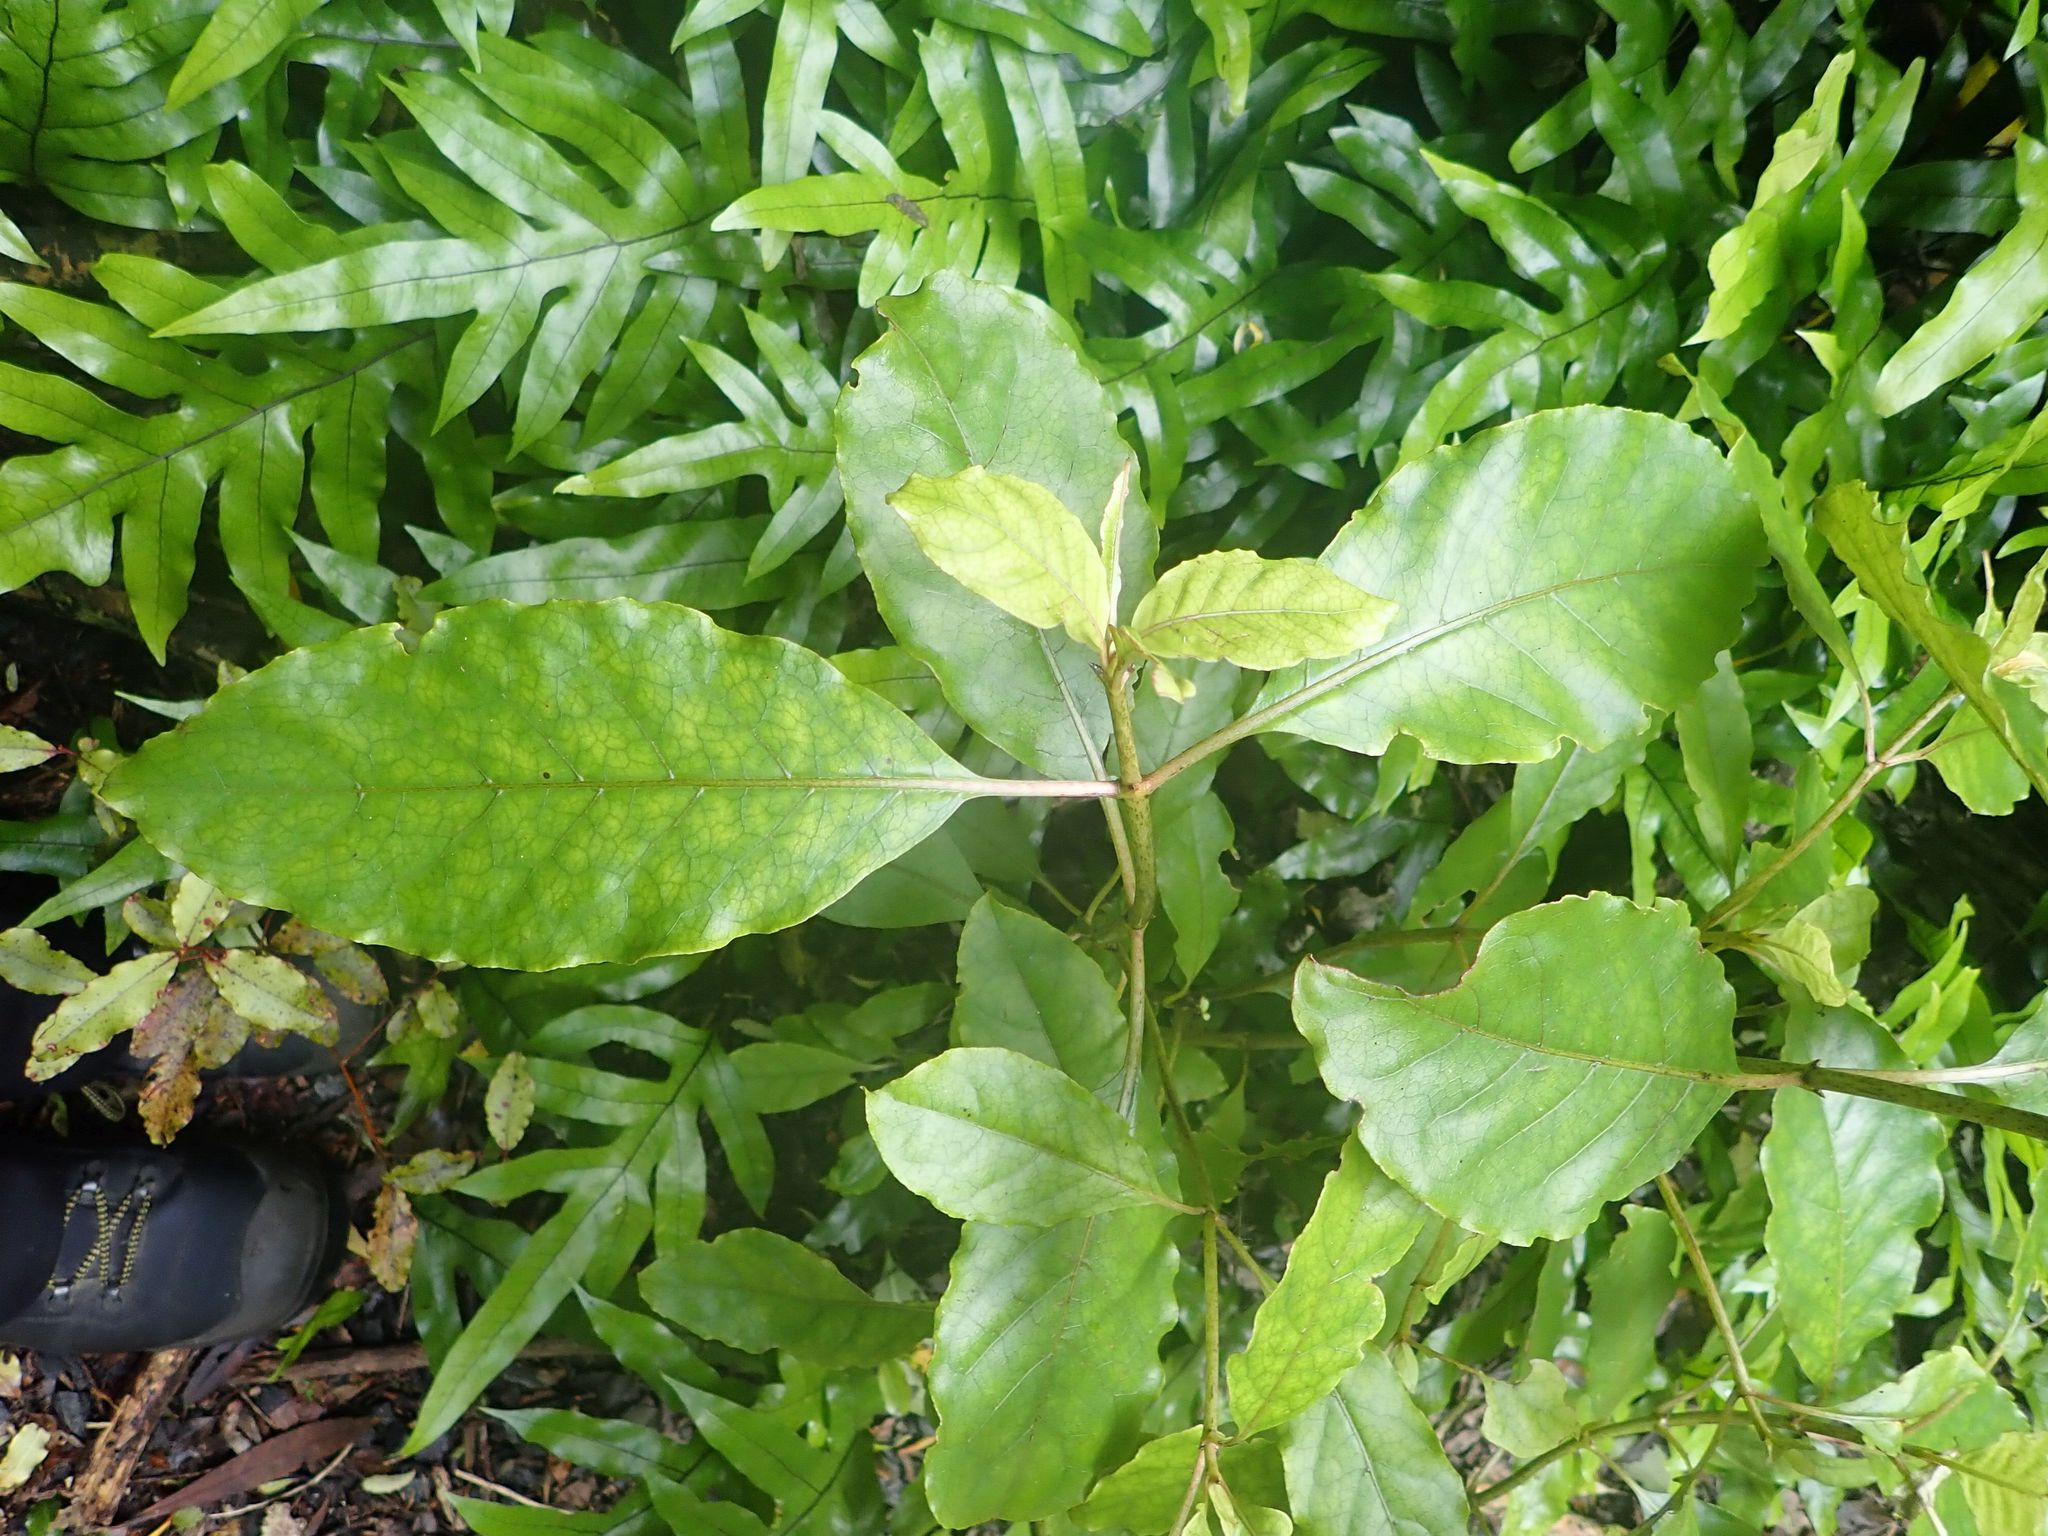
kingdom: Plantae
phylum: Tracheophyta
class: Magnoliopsida
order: Gentianales
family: Rubiaceae
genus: Coprosma
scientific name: Coprosma autumnalis
